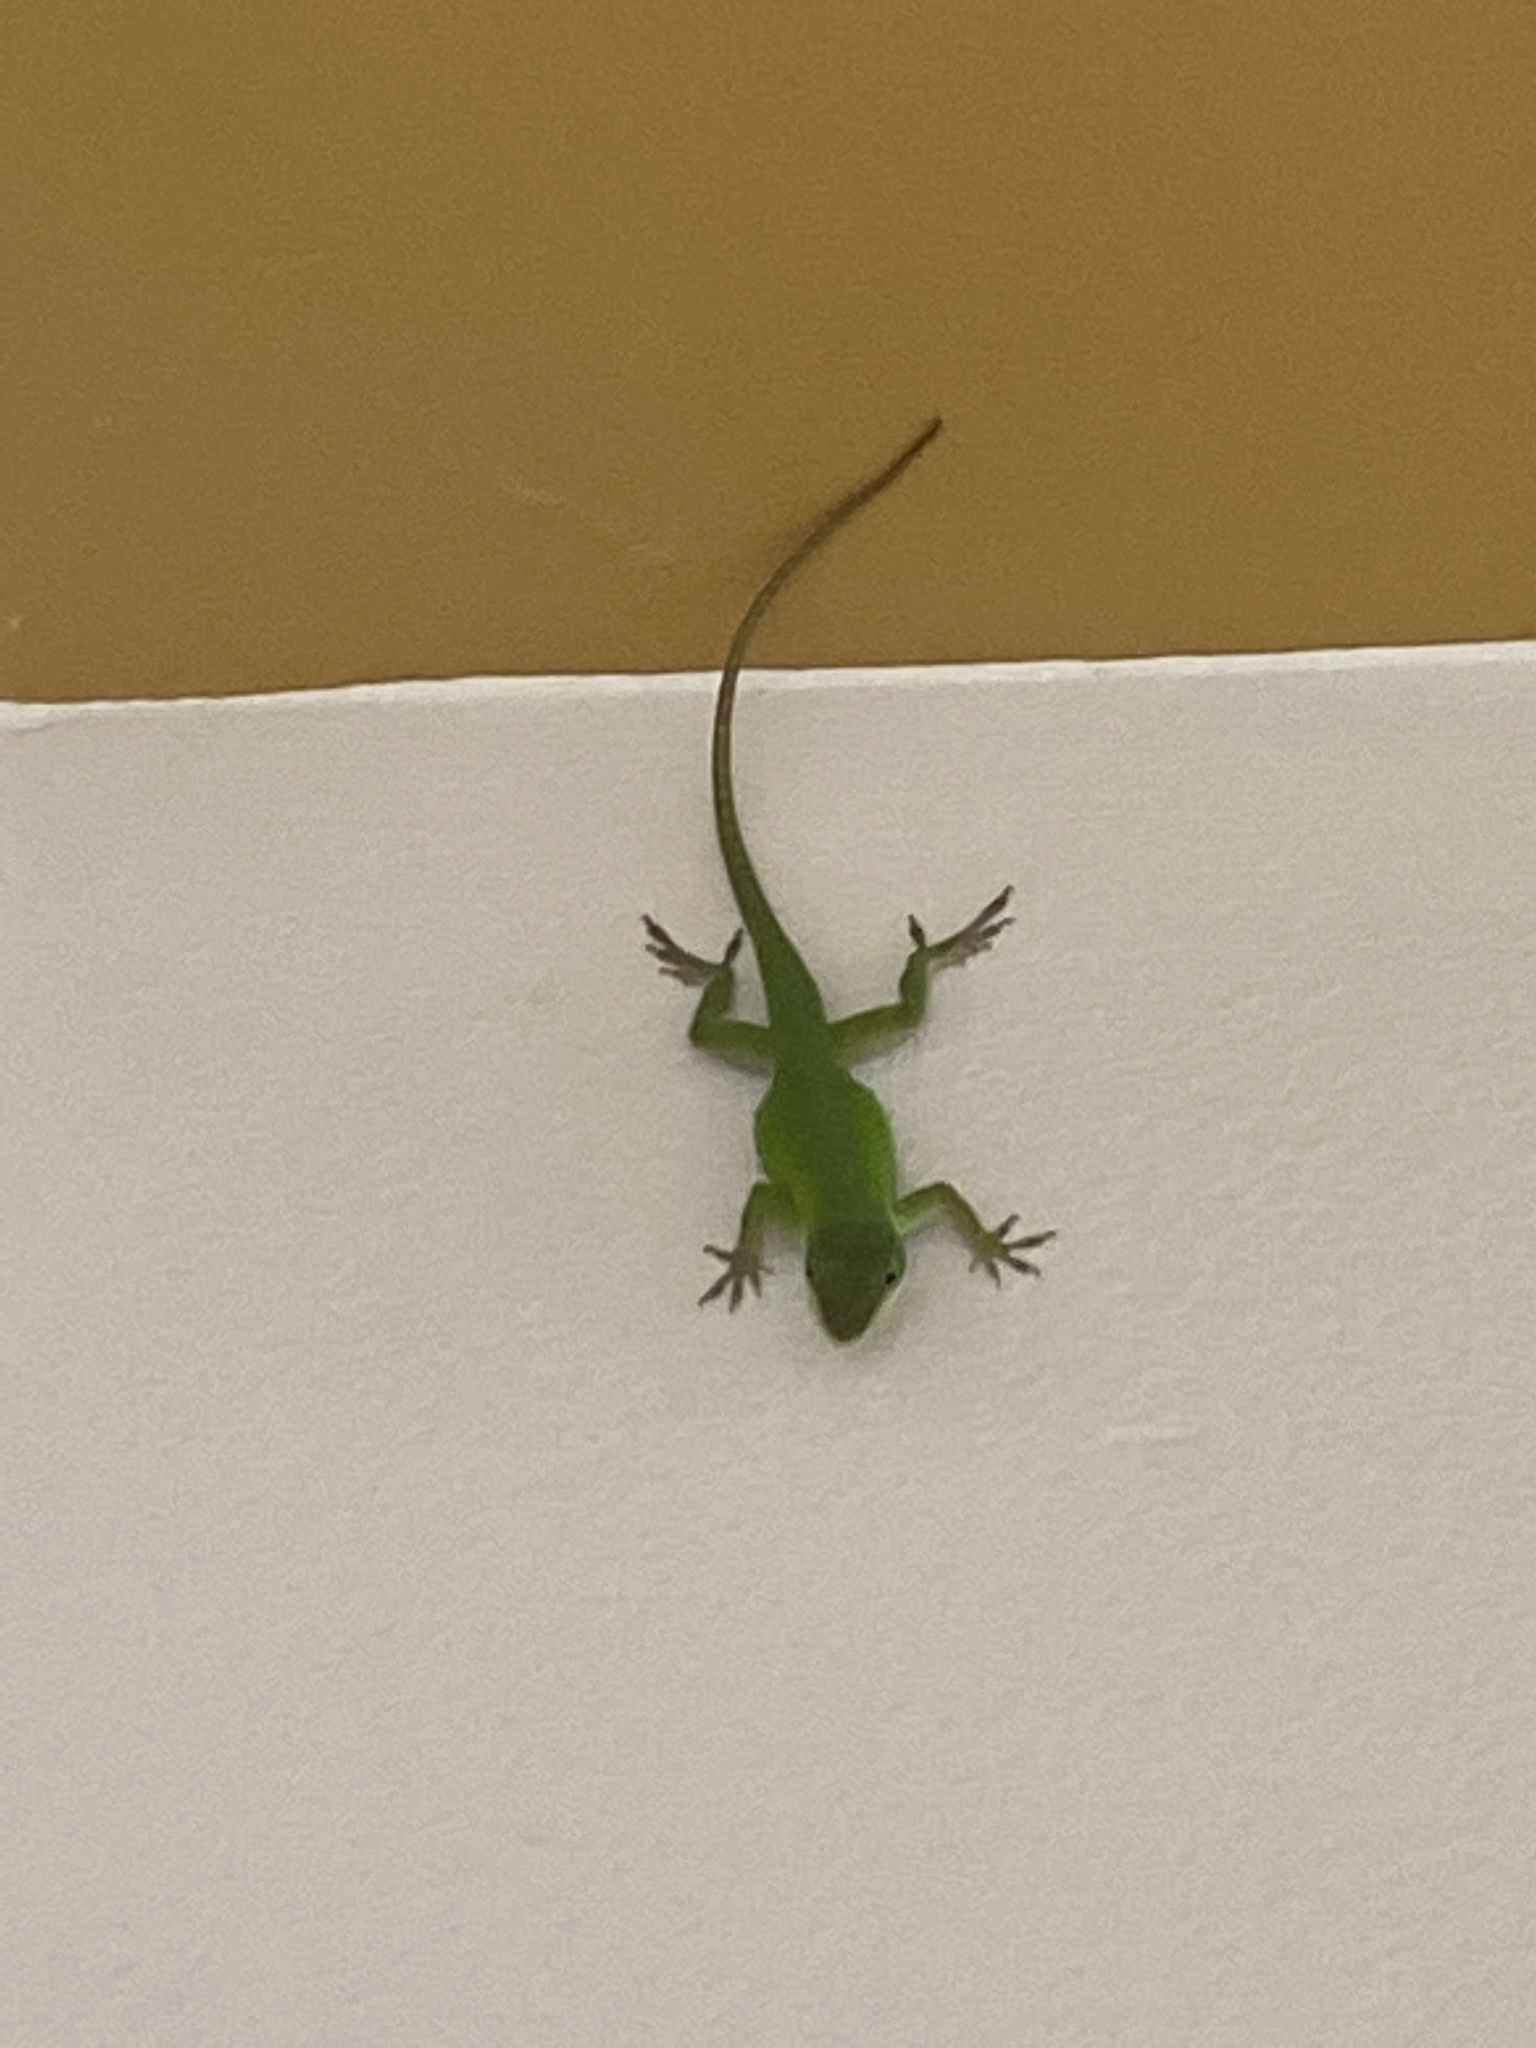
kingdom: Animalia
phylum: Chordata
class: Squamata
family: Dactyloidae
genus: Anolis
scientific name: Anolis carolinensis
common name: Green anole
